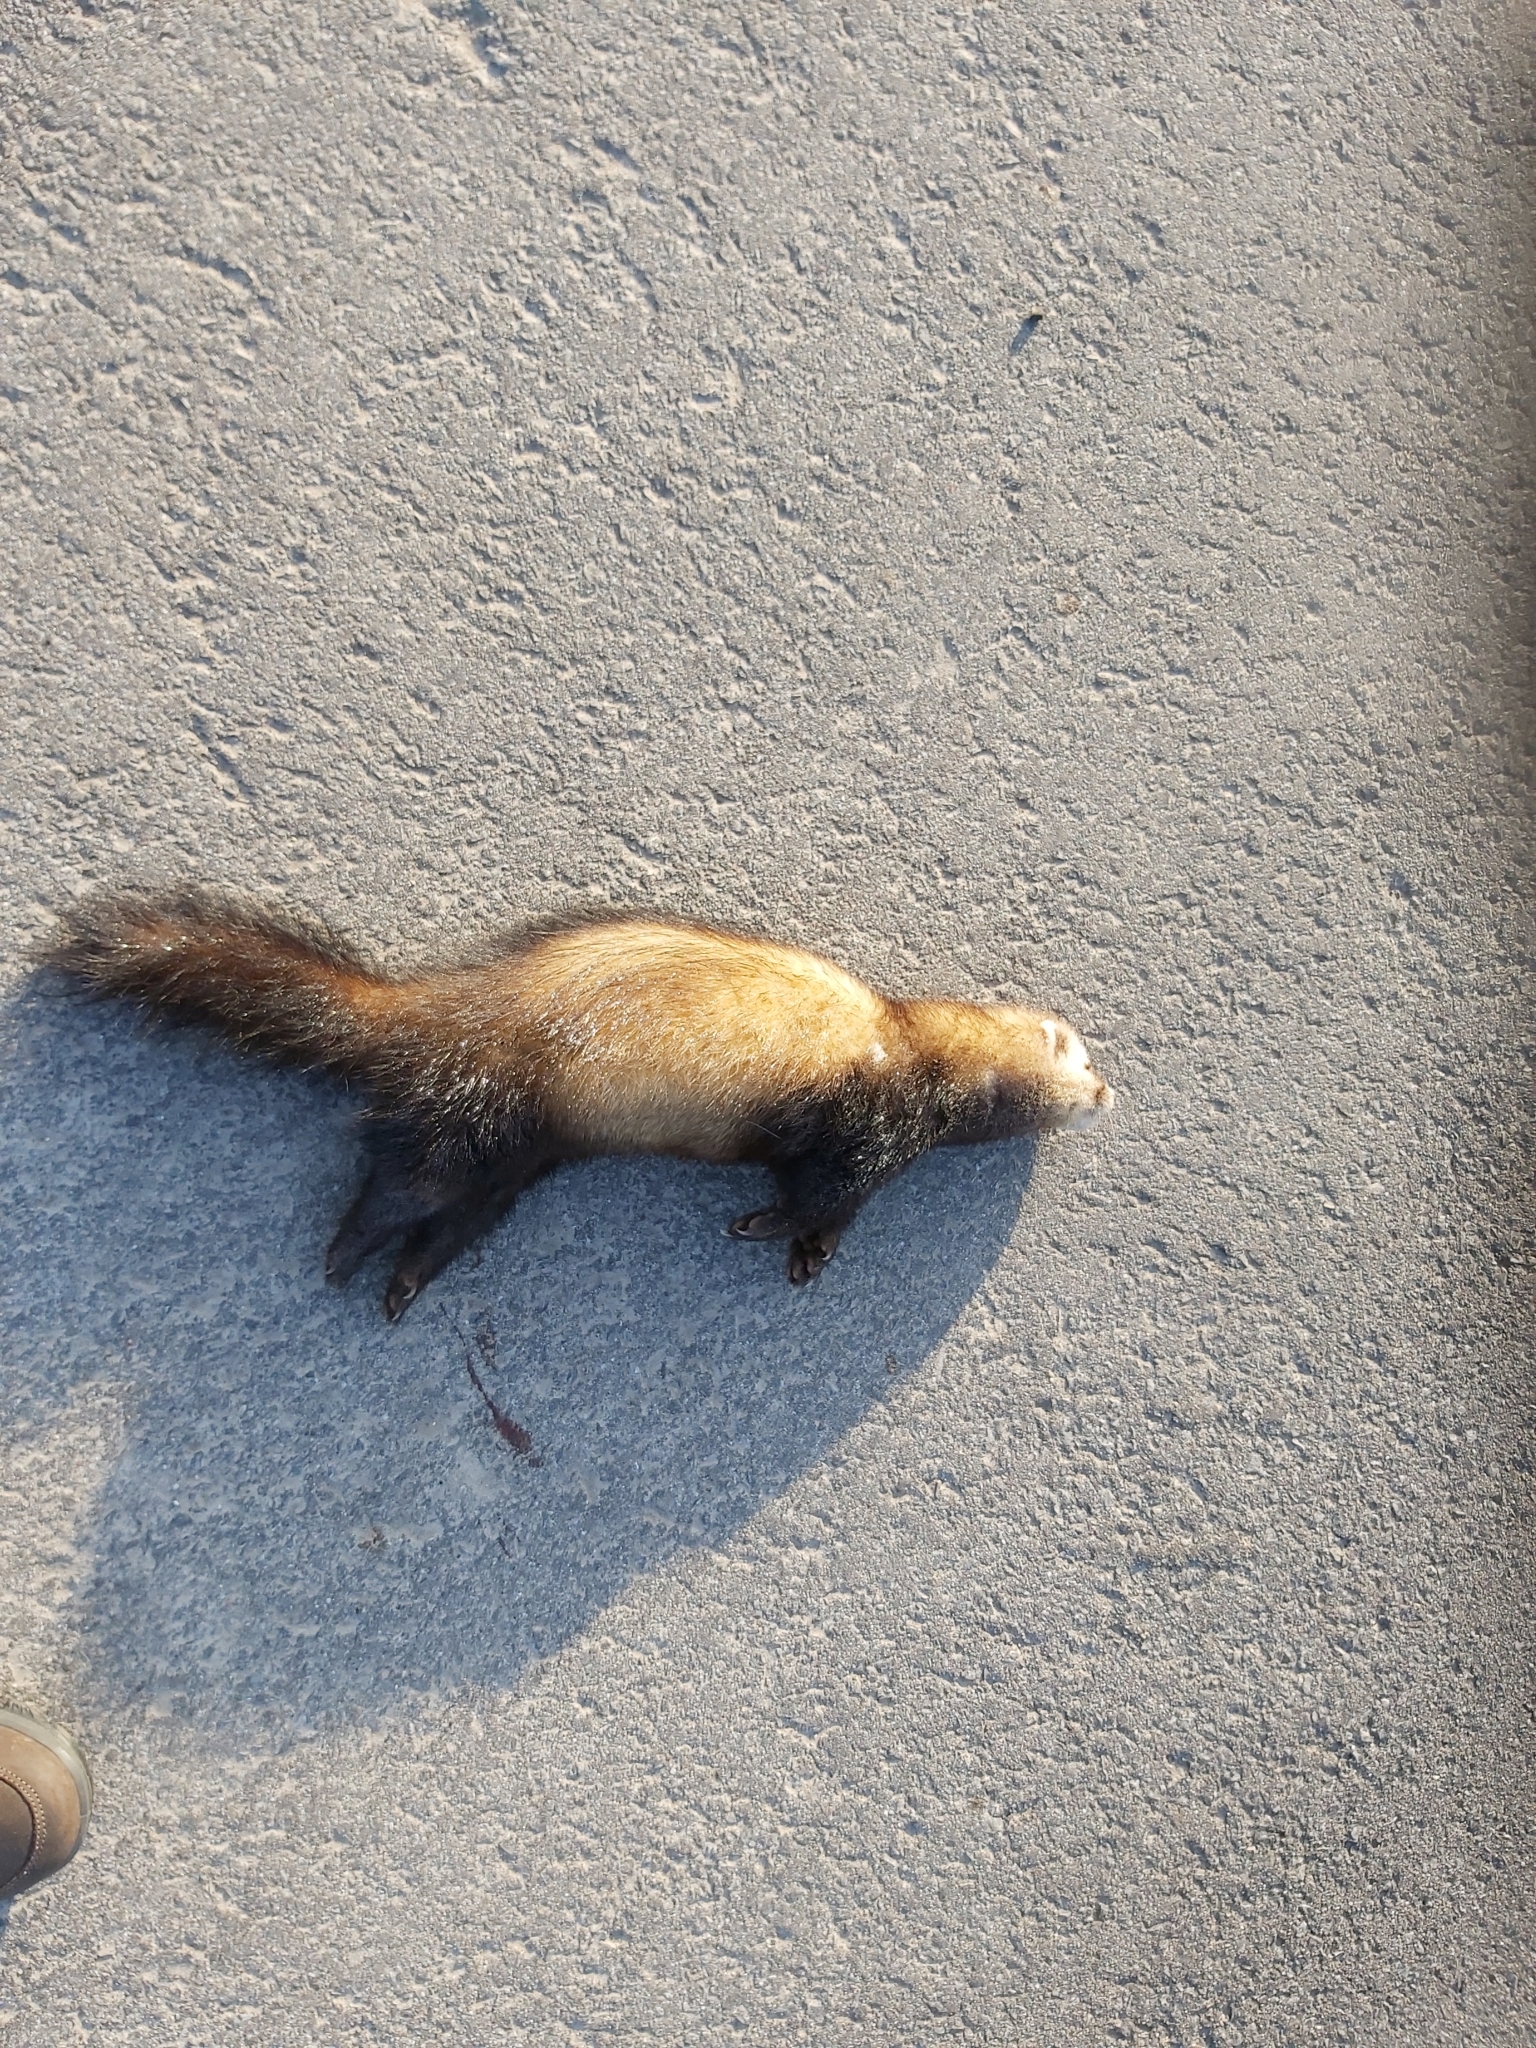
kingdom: Animalia
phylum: Chordata
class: Mammalia
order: Carnivora
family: Mustelidae
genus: Mustela
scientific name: Mustela putorius
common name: European polecat
